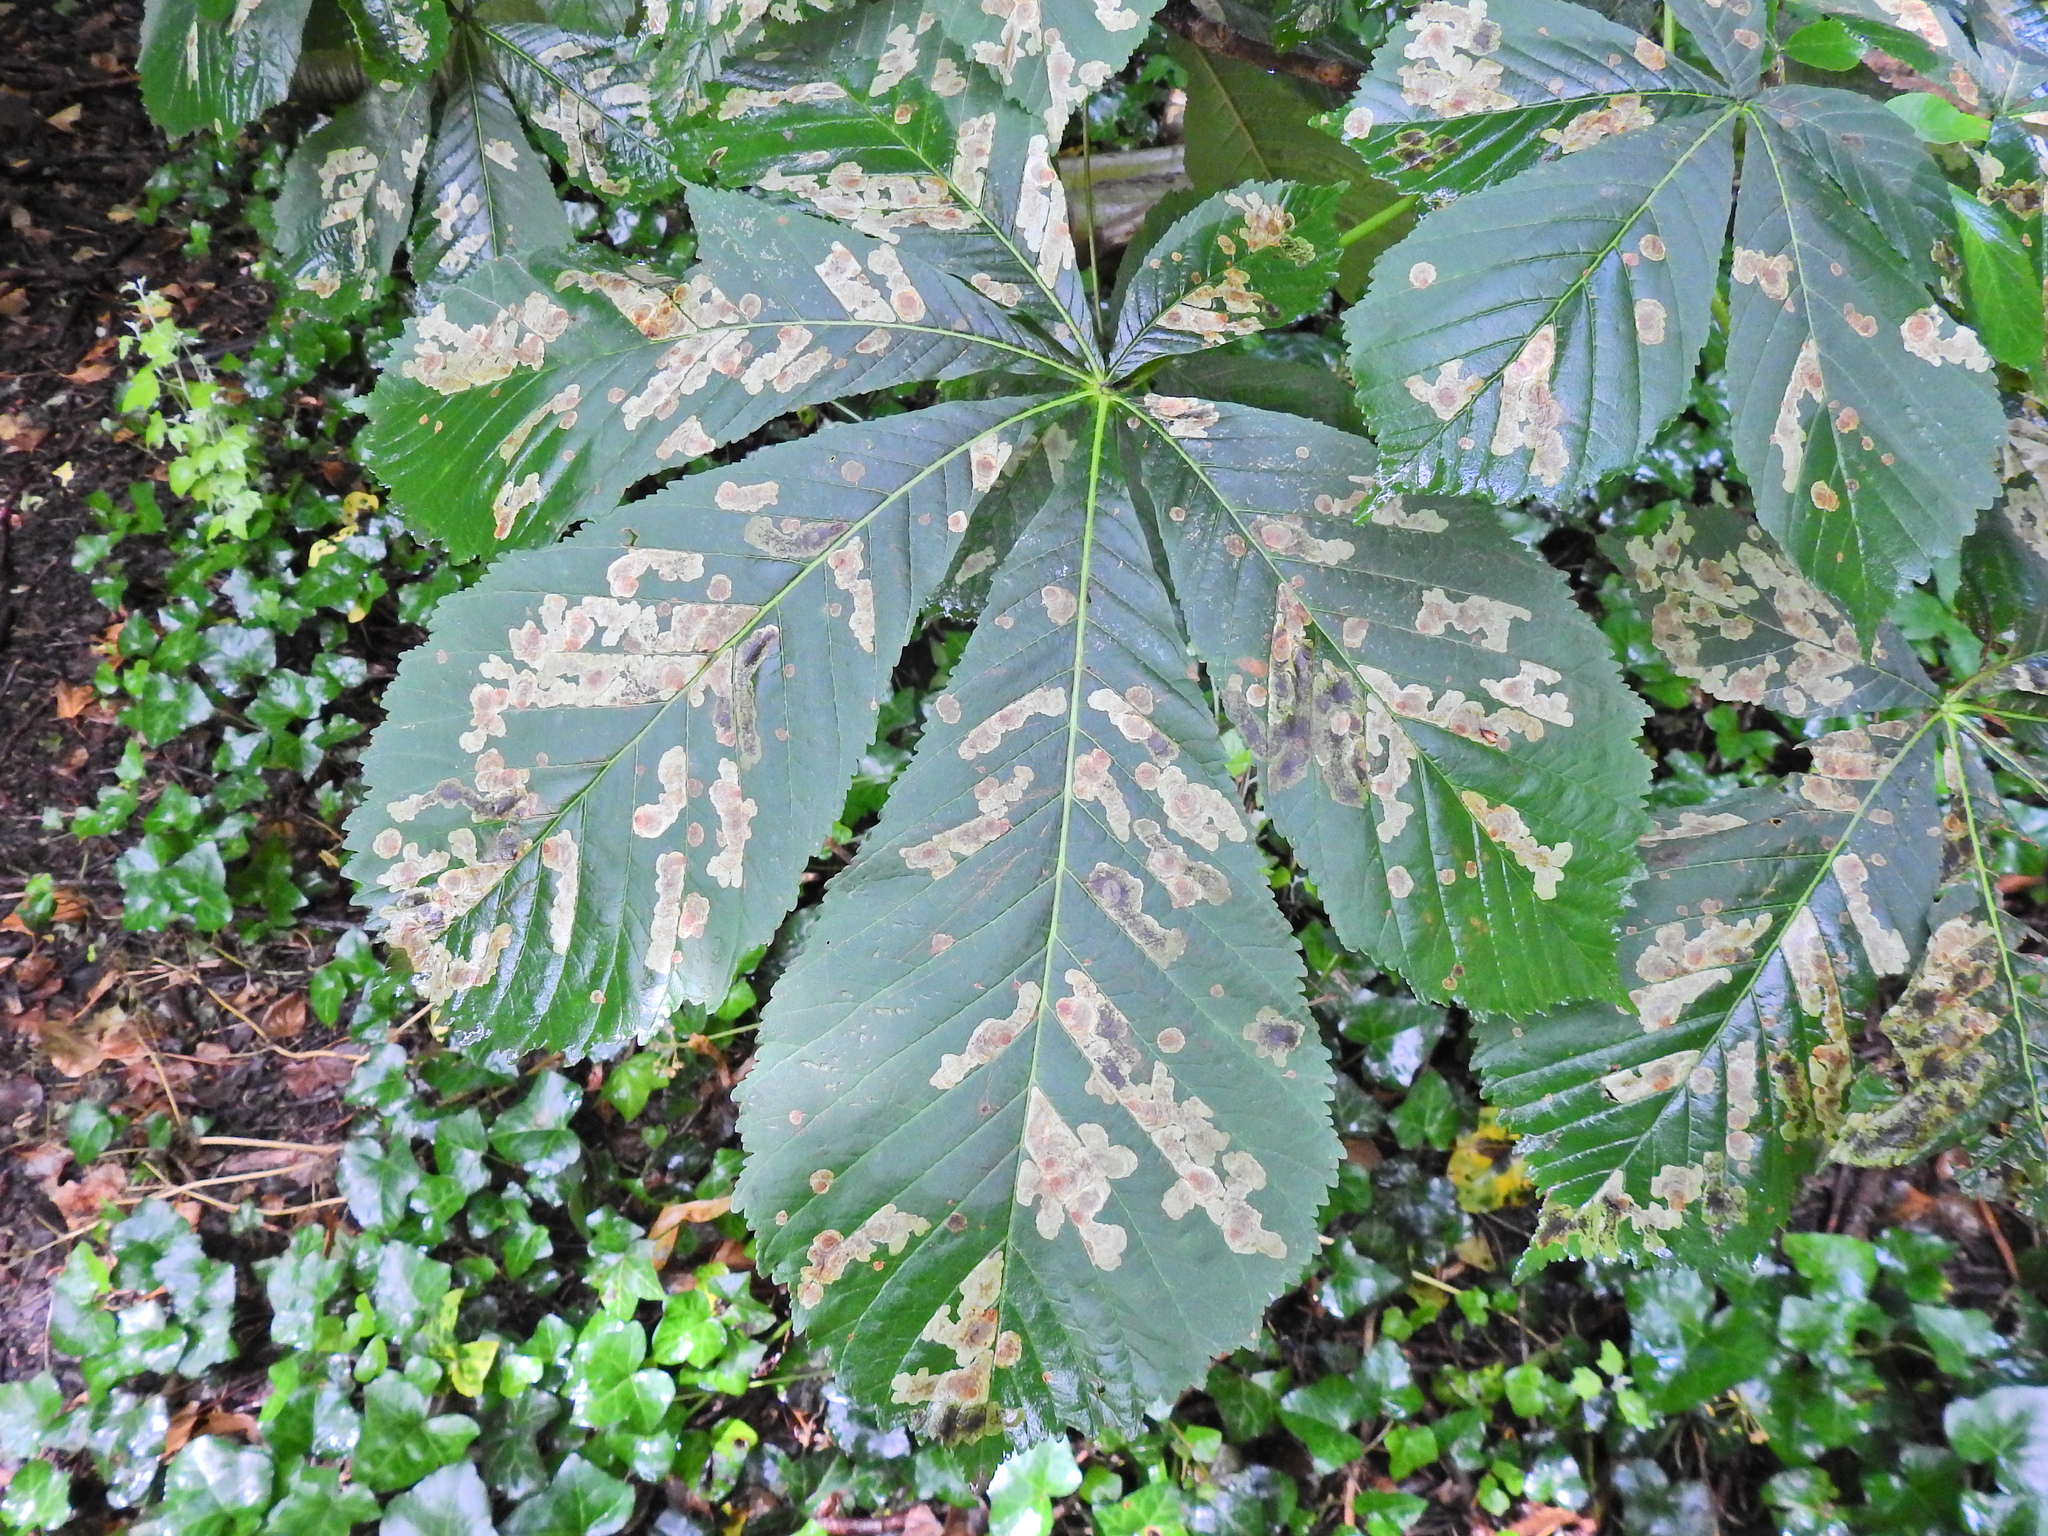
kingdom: Plantae
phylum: Tracheophyta
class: Magnoliopsida
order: Sapindales
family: Sapindaceae
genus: Aesculus
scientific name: Aesculus hippocastanum
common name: Horse-chestnut
